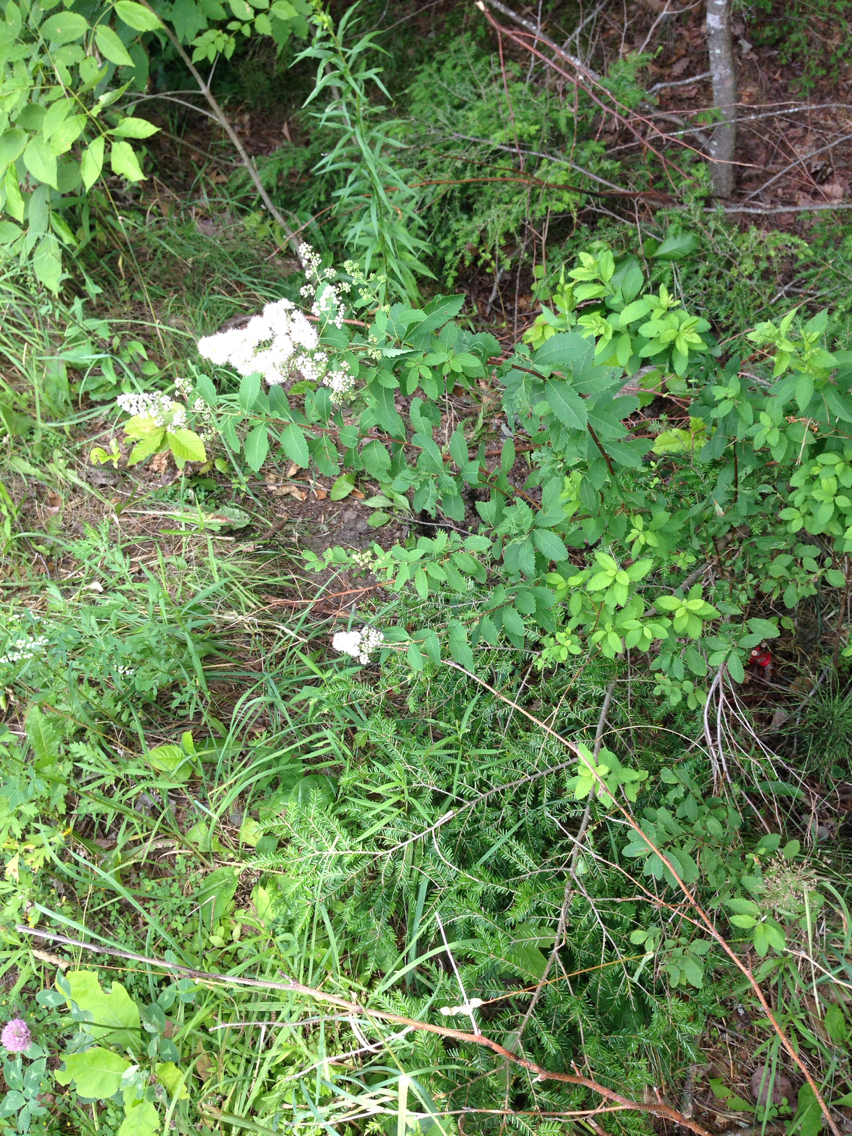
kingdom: Plantae
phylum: Tracheophyta
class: Magnoliopsida
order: Rosales
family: Rosaceae
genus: Spiraea
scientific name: Spiraea alba
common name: Pale bridewort
